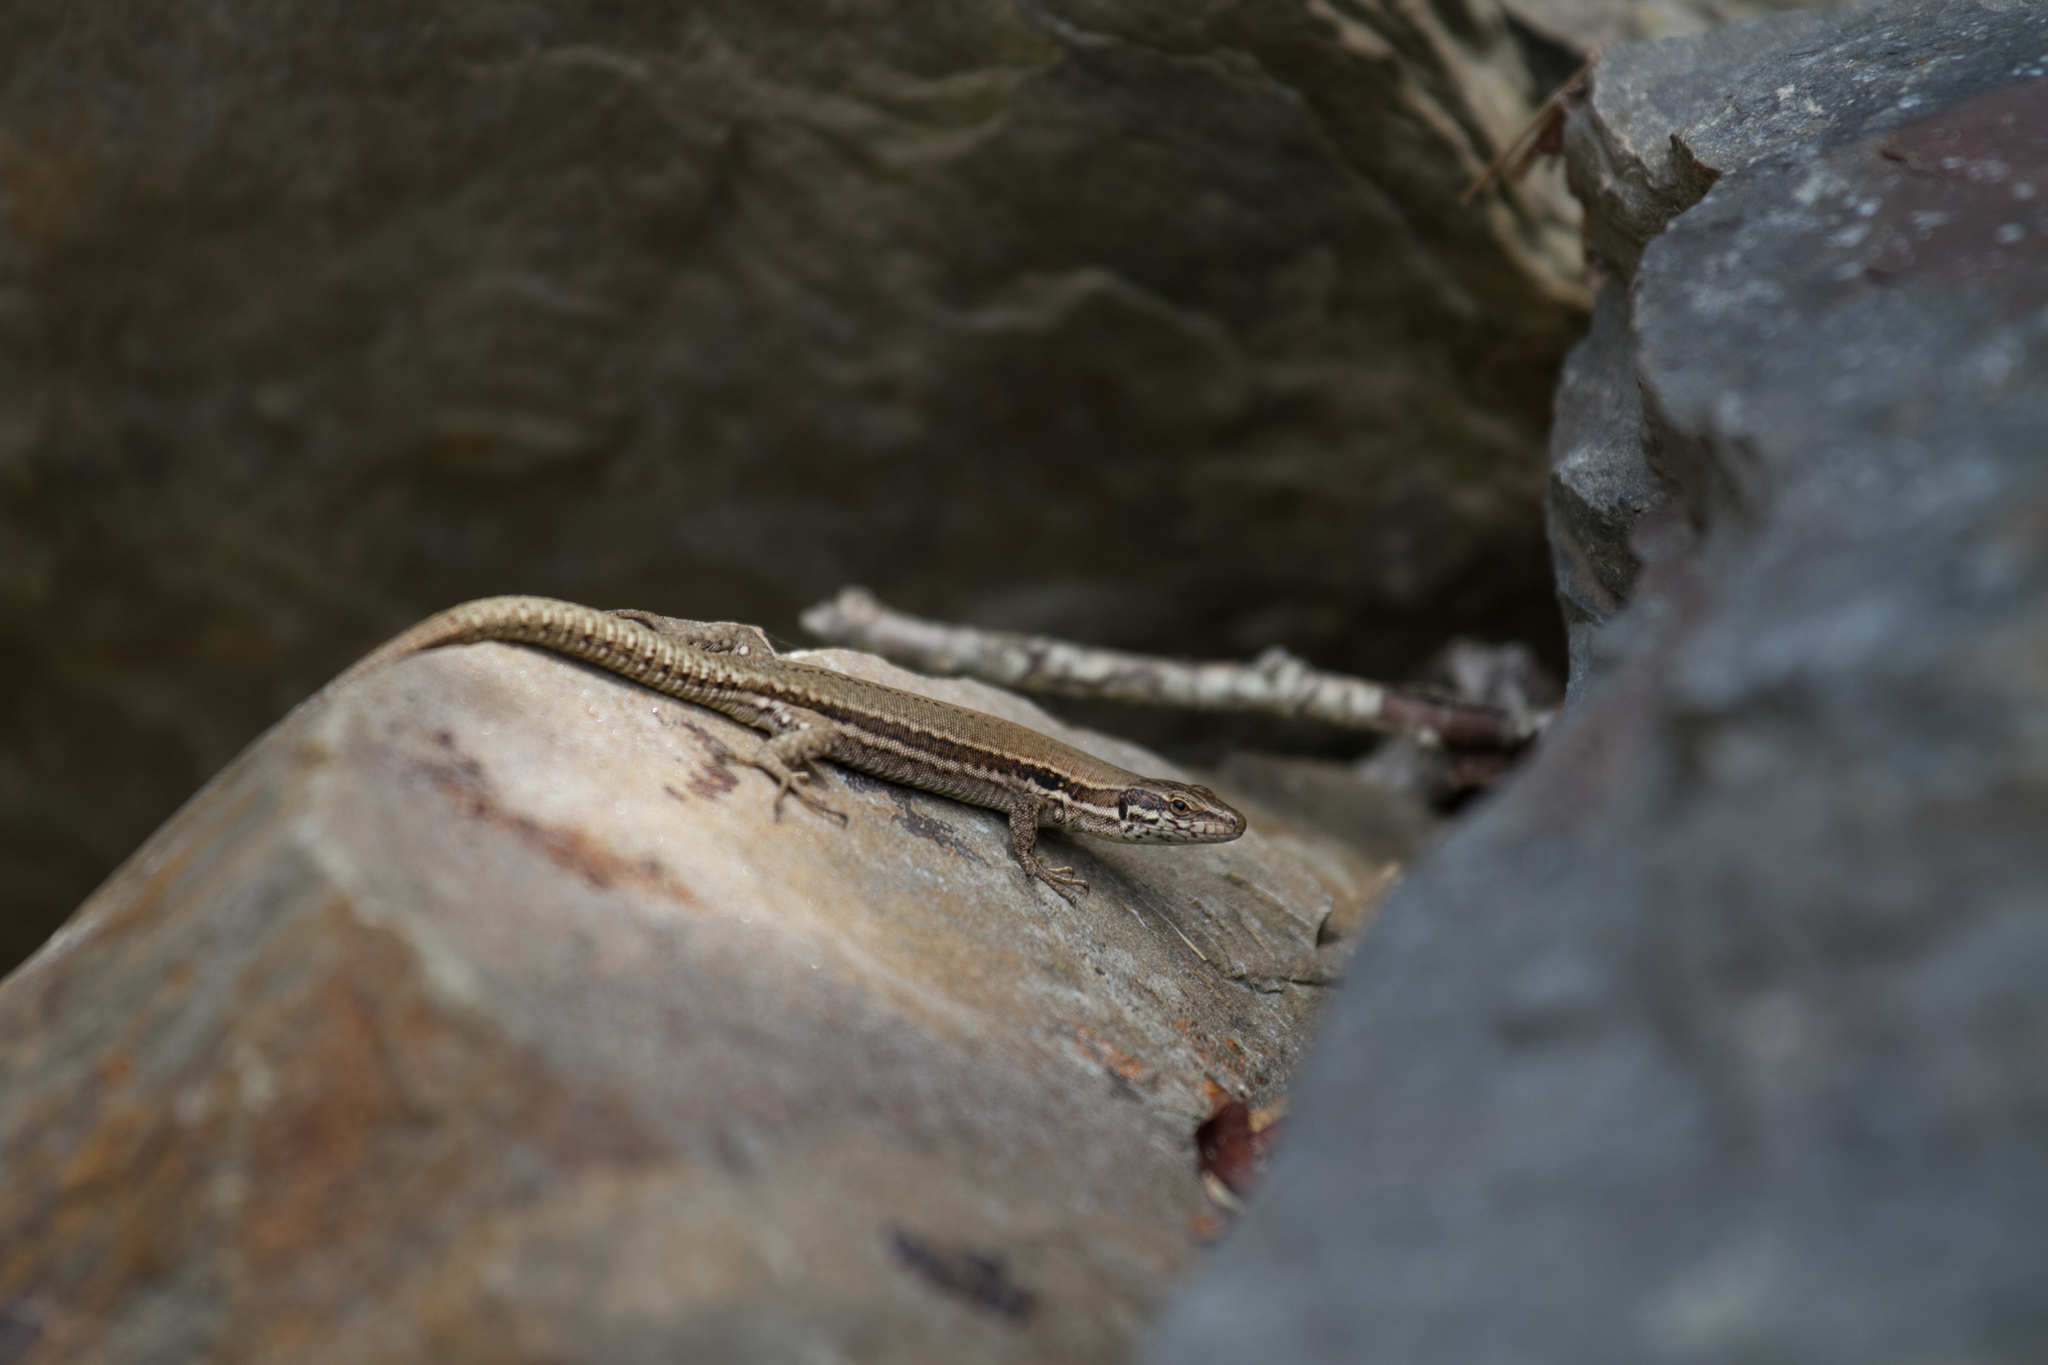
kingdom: Animalia
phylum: Chordata
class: Squamata
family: Lacertidae
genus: Podarcis
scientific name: Podarcis muralis
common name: Common wall lizard
